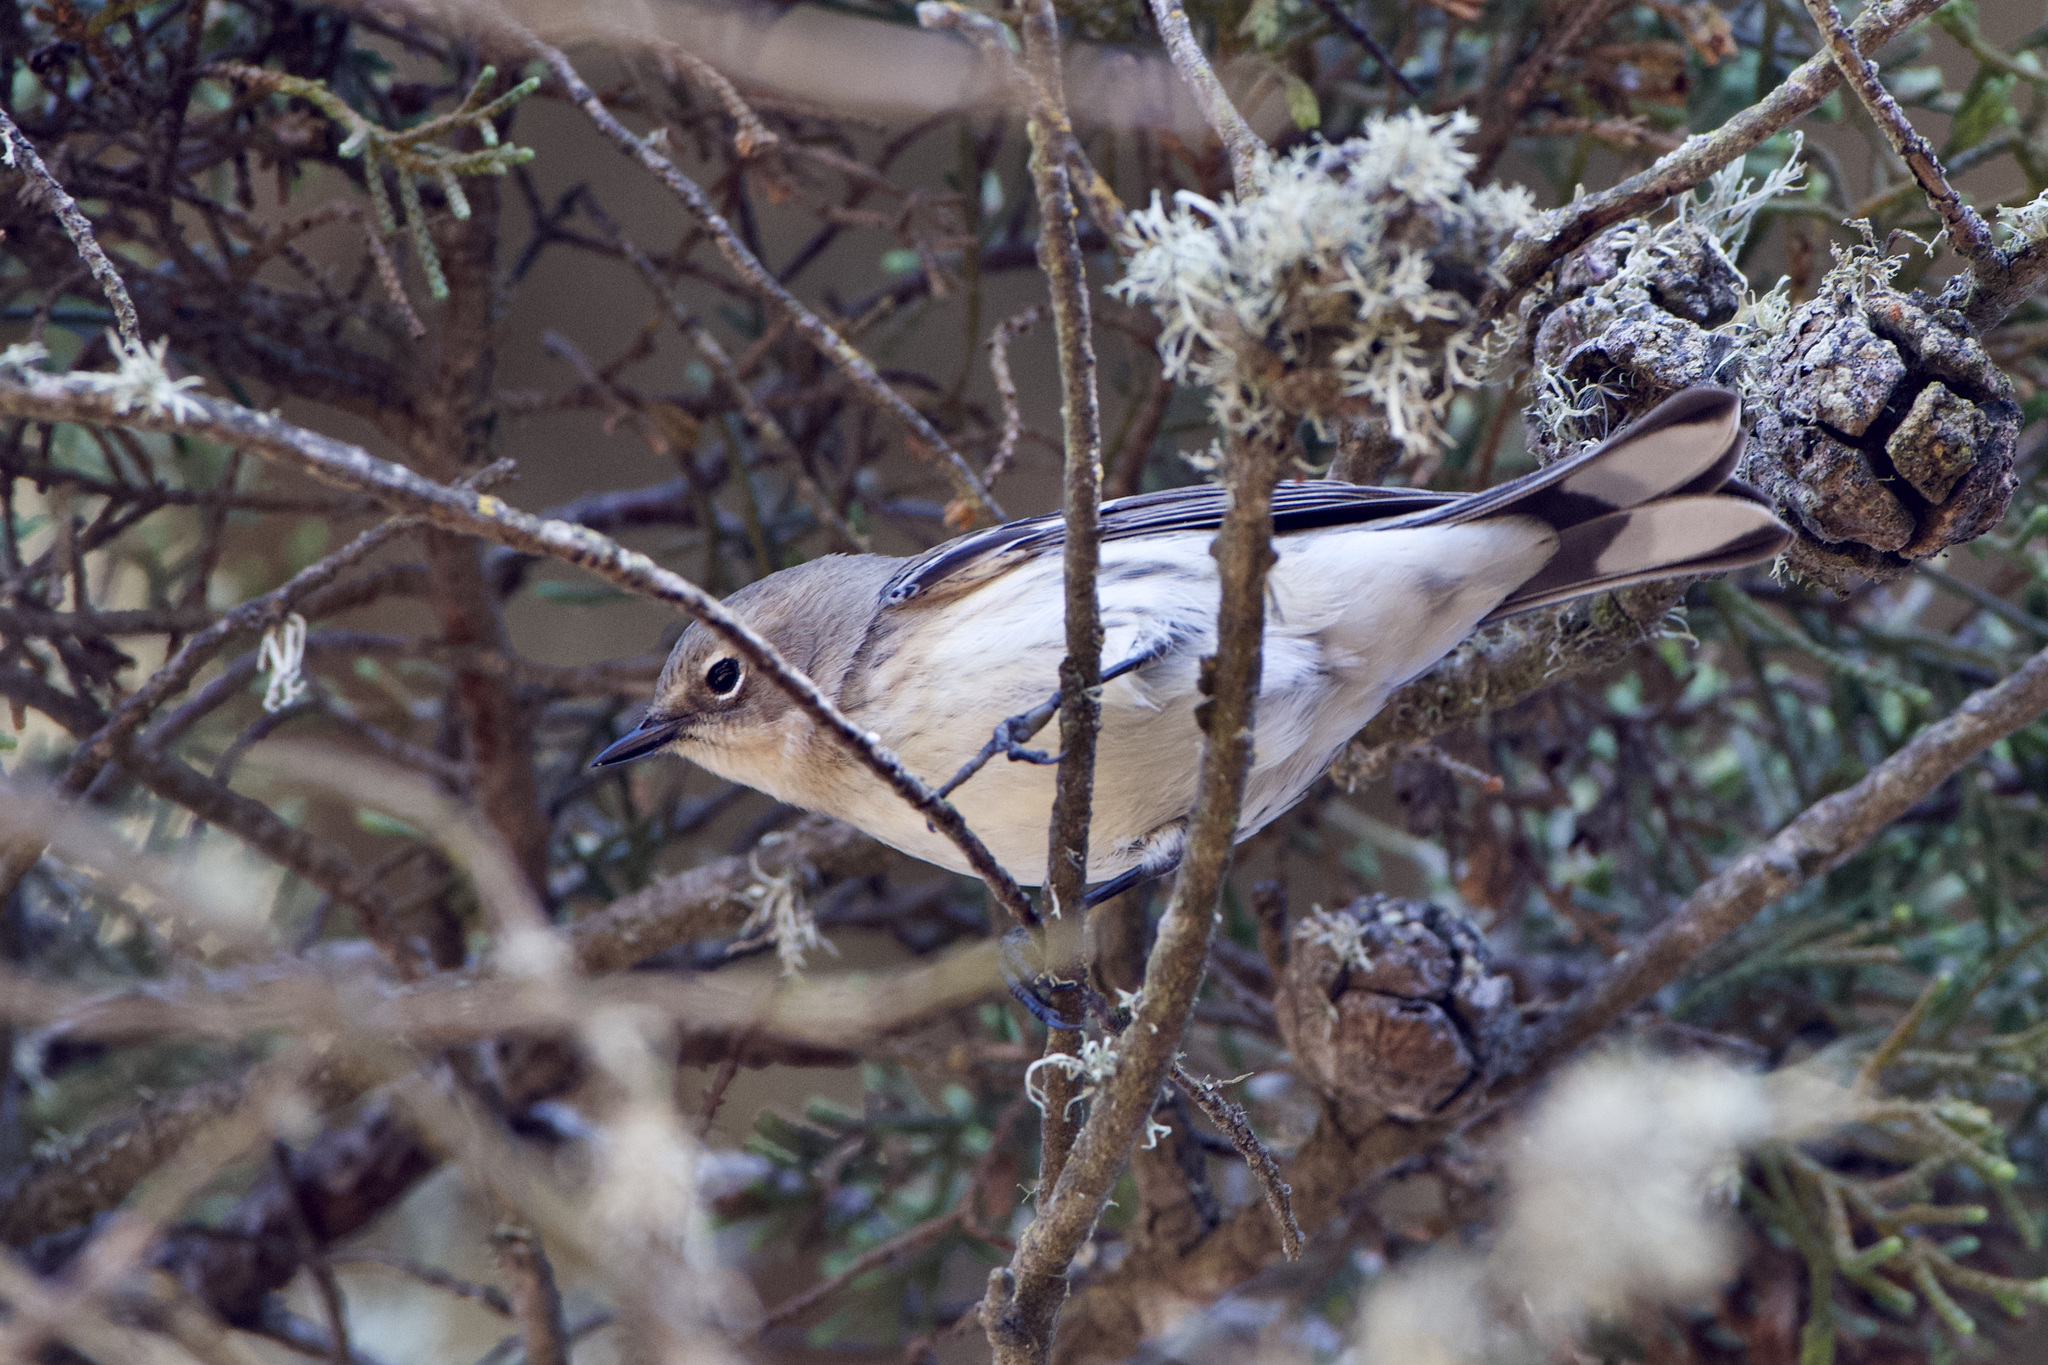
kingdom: Animalia
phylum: Chordata
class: Aves
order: Passeriformes
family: Parulidae
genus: Setophaga
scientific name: Setophaga coronata
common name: Myrtle warbler
